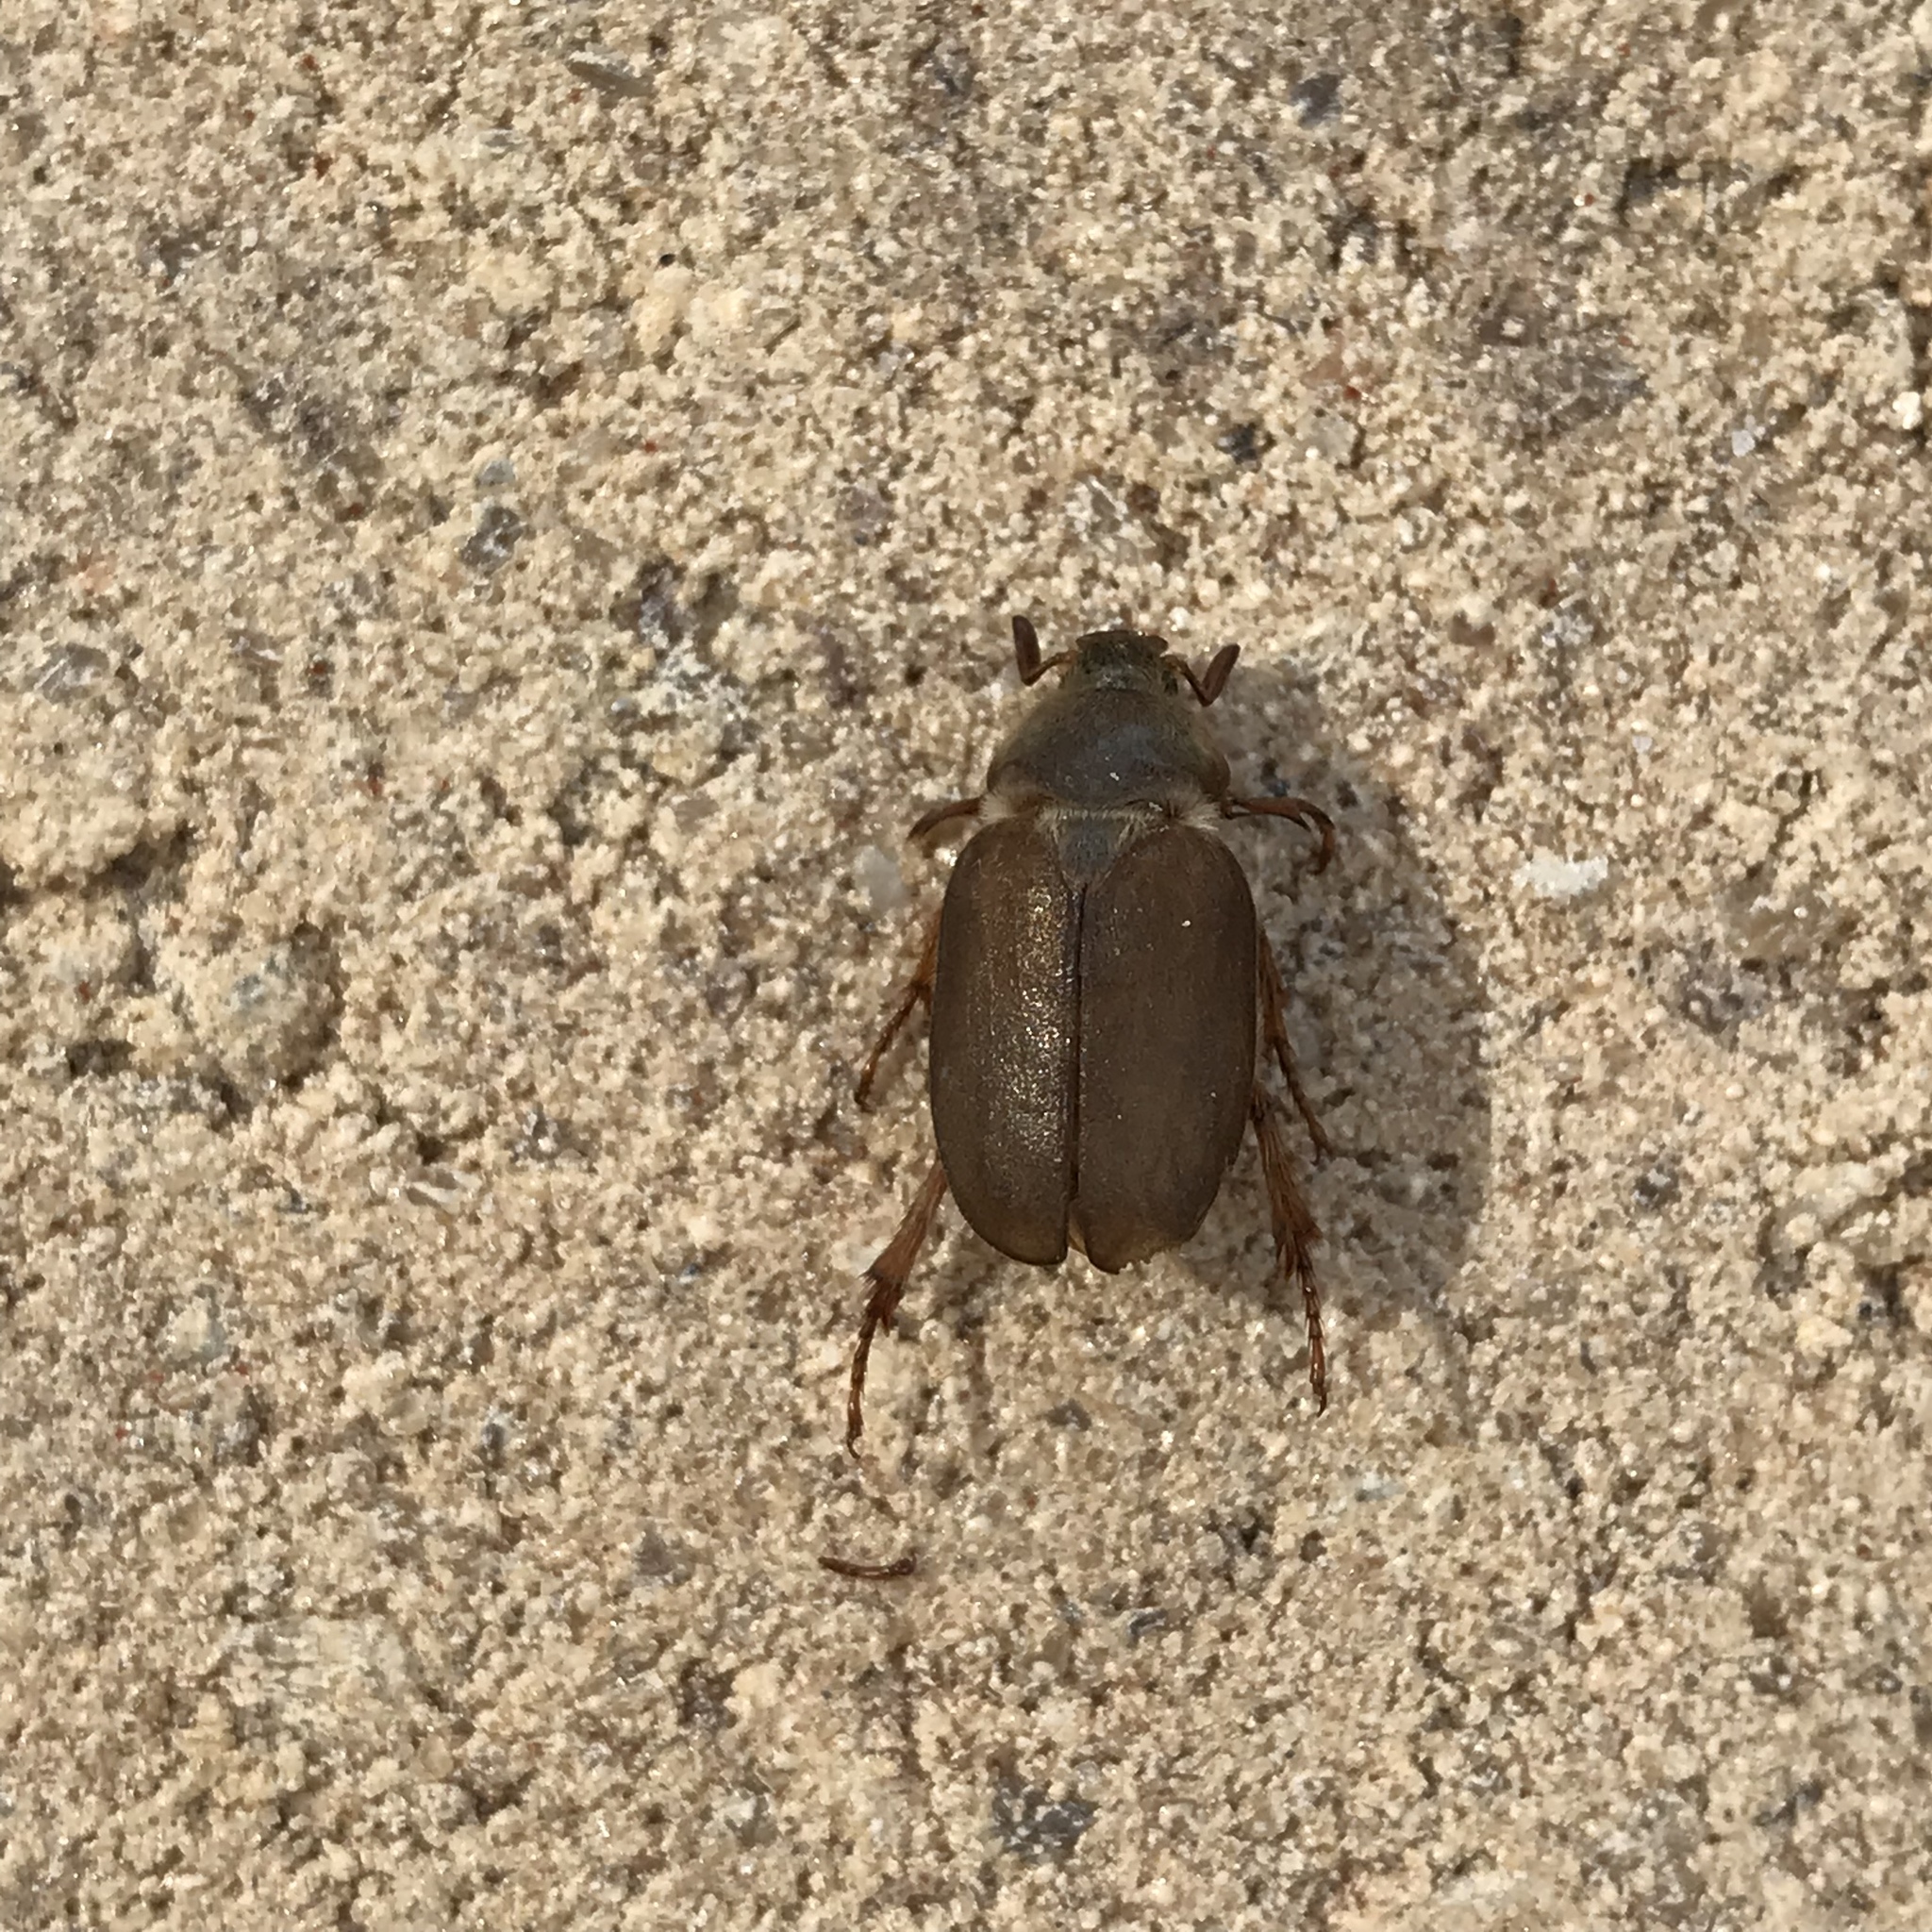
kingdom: Animalia
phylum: Arthropoda
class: Insecta
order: Coleoptera
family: Scarabaeidae
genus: Hypotrichia
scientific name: Hypotrichia spissipes
